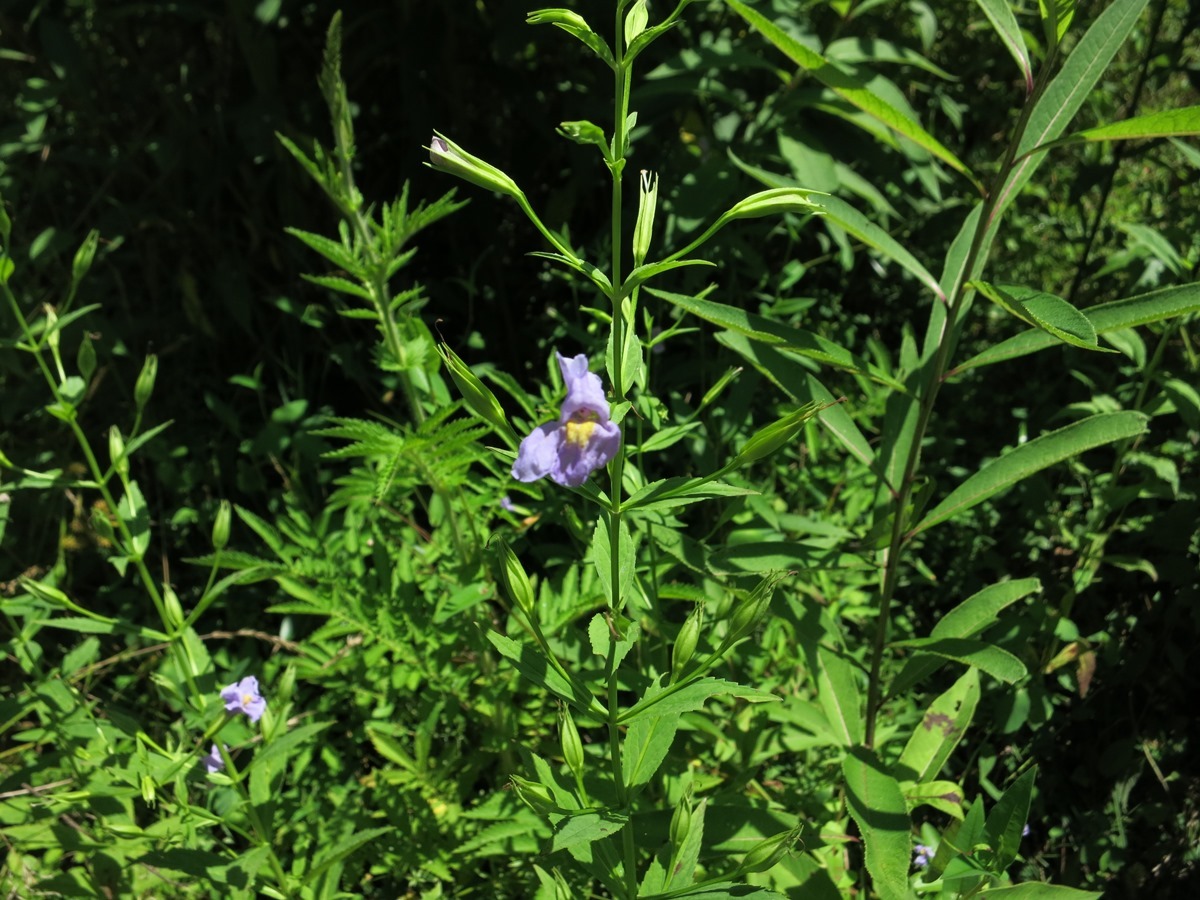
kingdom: Plantae
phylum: Tracheophyta
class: Magnoliopsida
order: Lamiales
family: Phrymaceae
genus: Mimulus
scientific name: Mimulus ringens
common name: Allegheny monkeyflower
